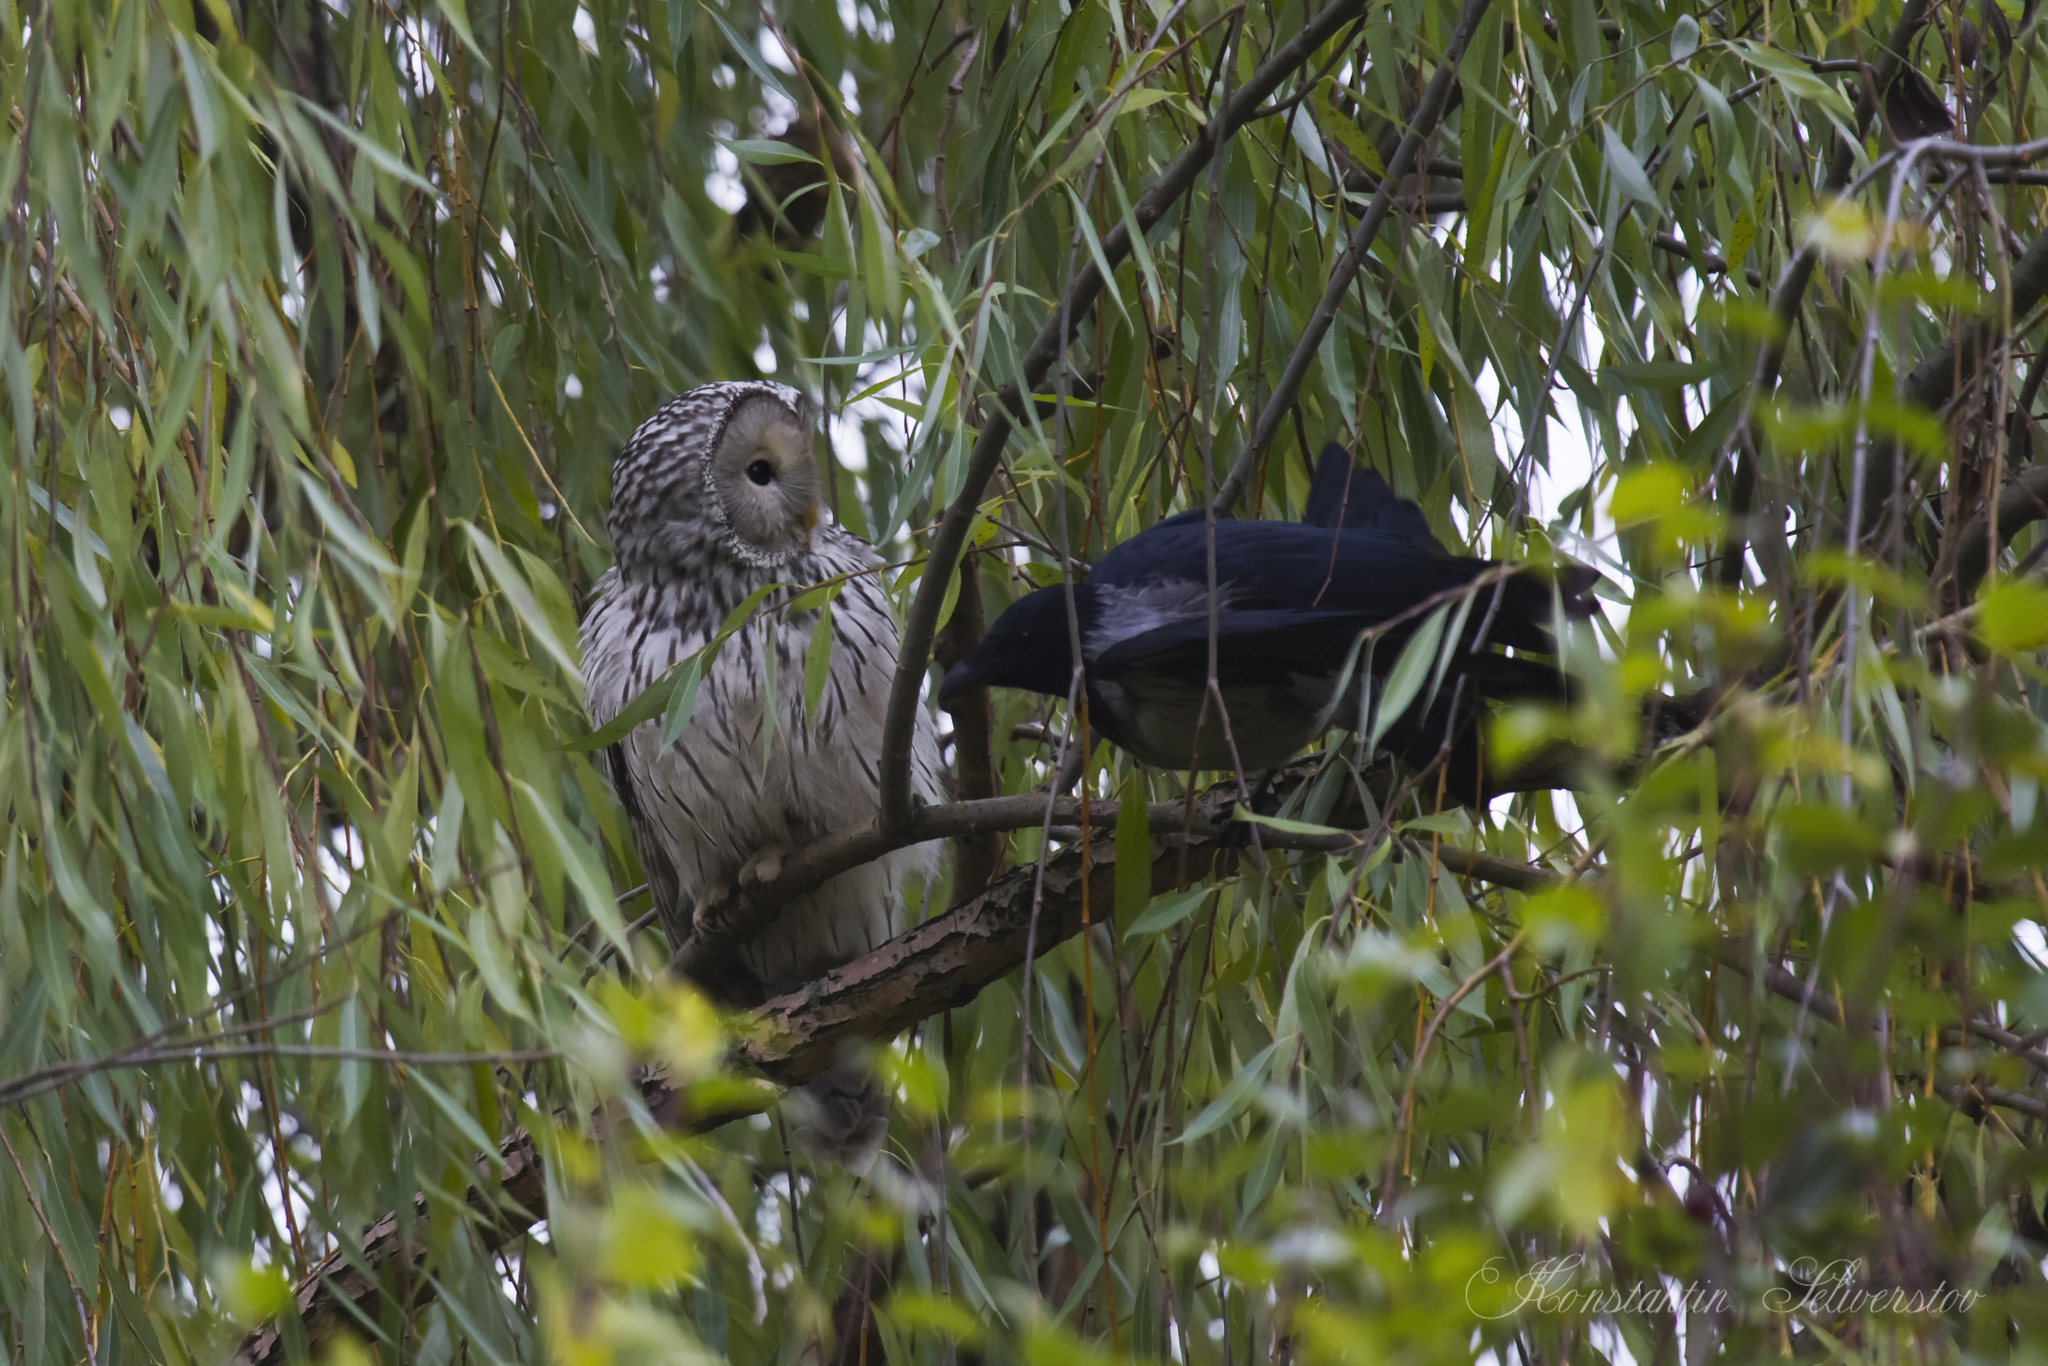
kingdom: Animalia
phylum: Chordata
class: Aves
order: Strigiformes
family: Strigidae
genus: Strix
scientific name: Strix uralensis
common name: Ural owl
